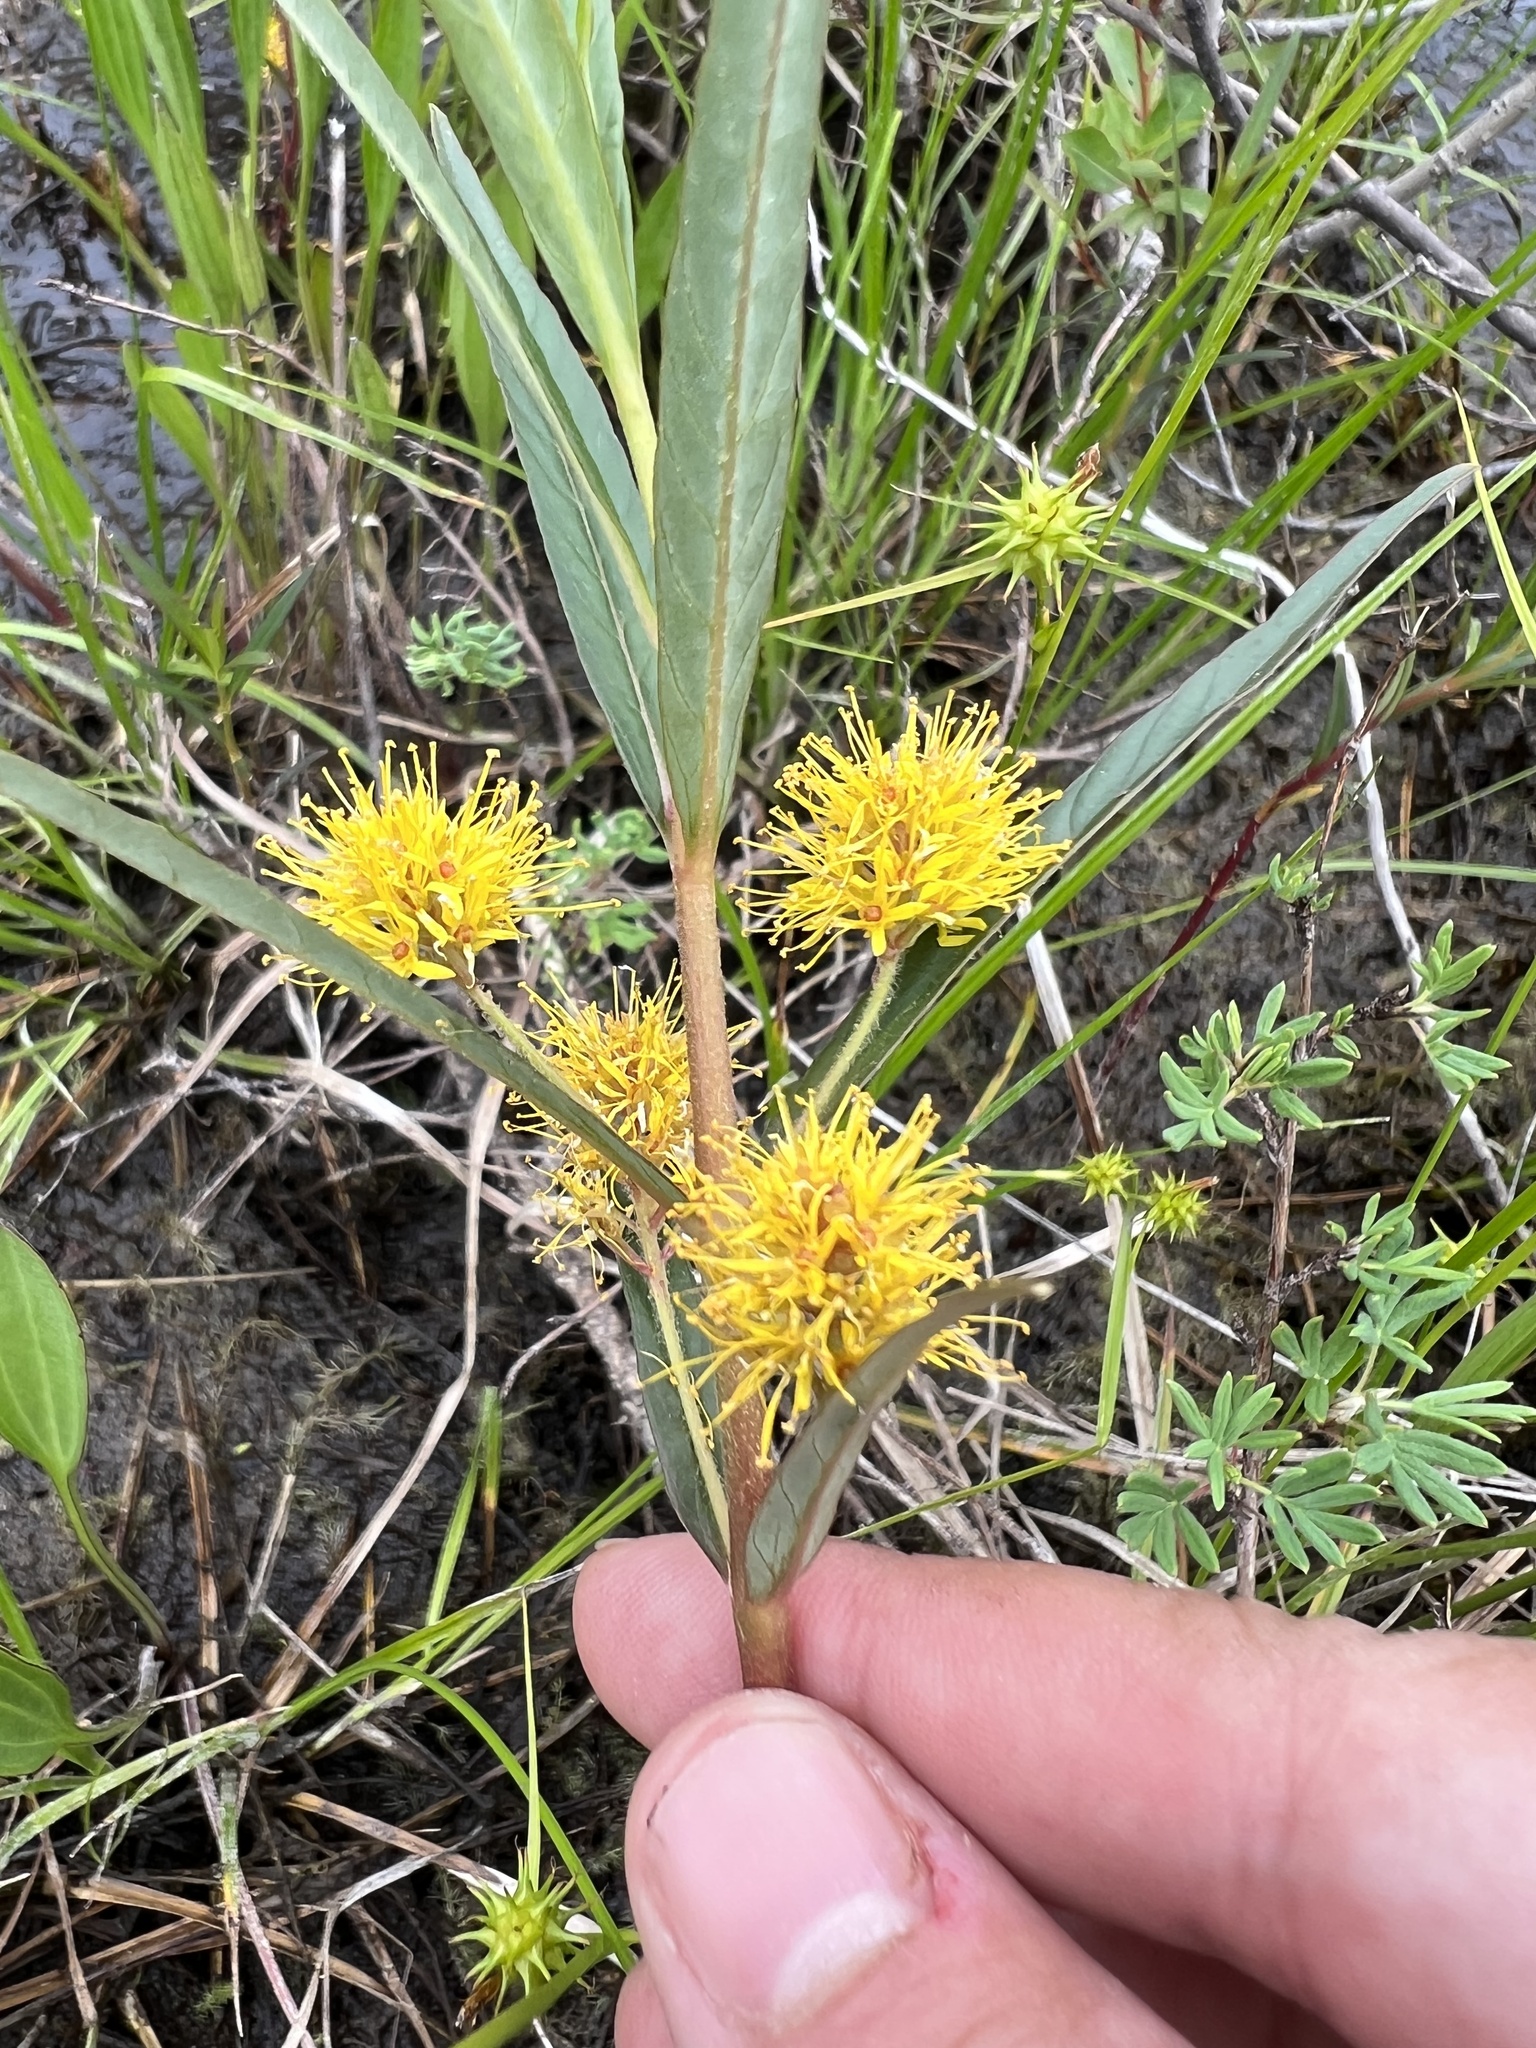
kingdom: Plantae
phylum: Tracheophyta
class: Magnoliopsida
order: Ericales
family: Primulaceae
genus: Lysimachia
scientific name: Lysimachia thyrsiflora
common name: Tufted loosestrife
